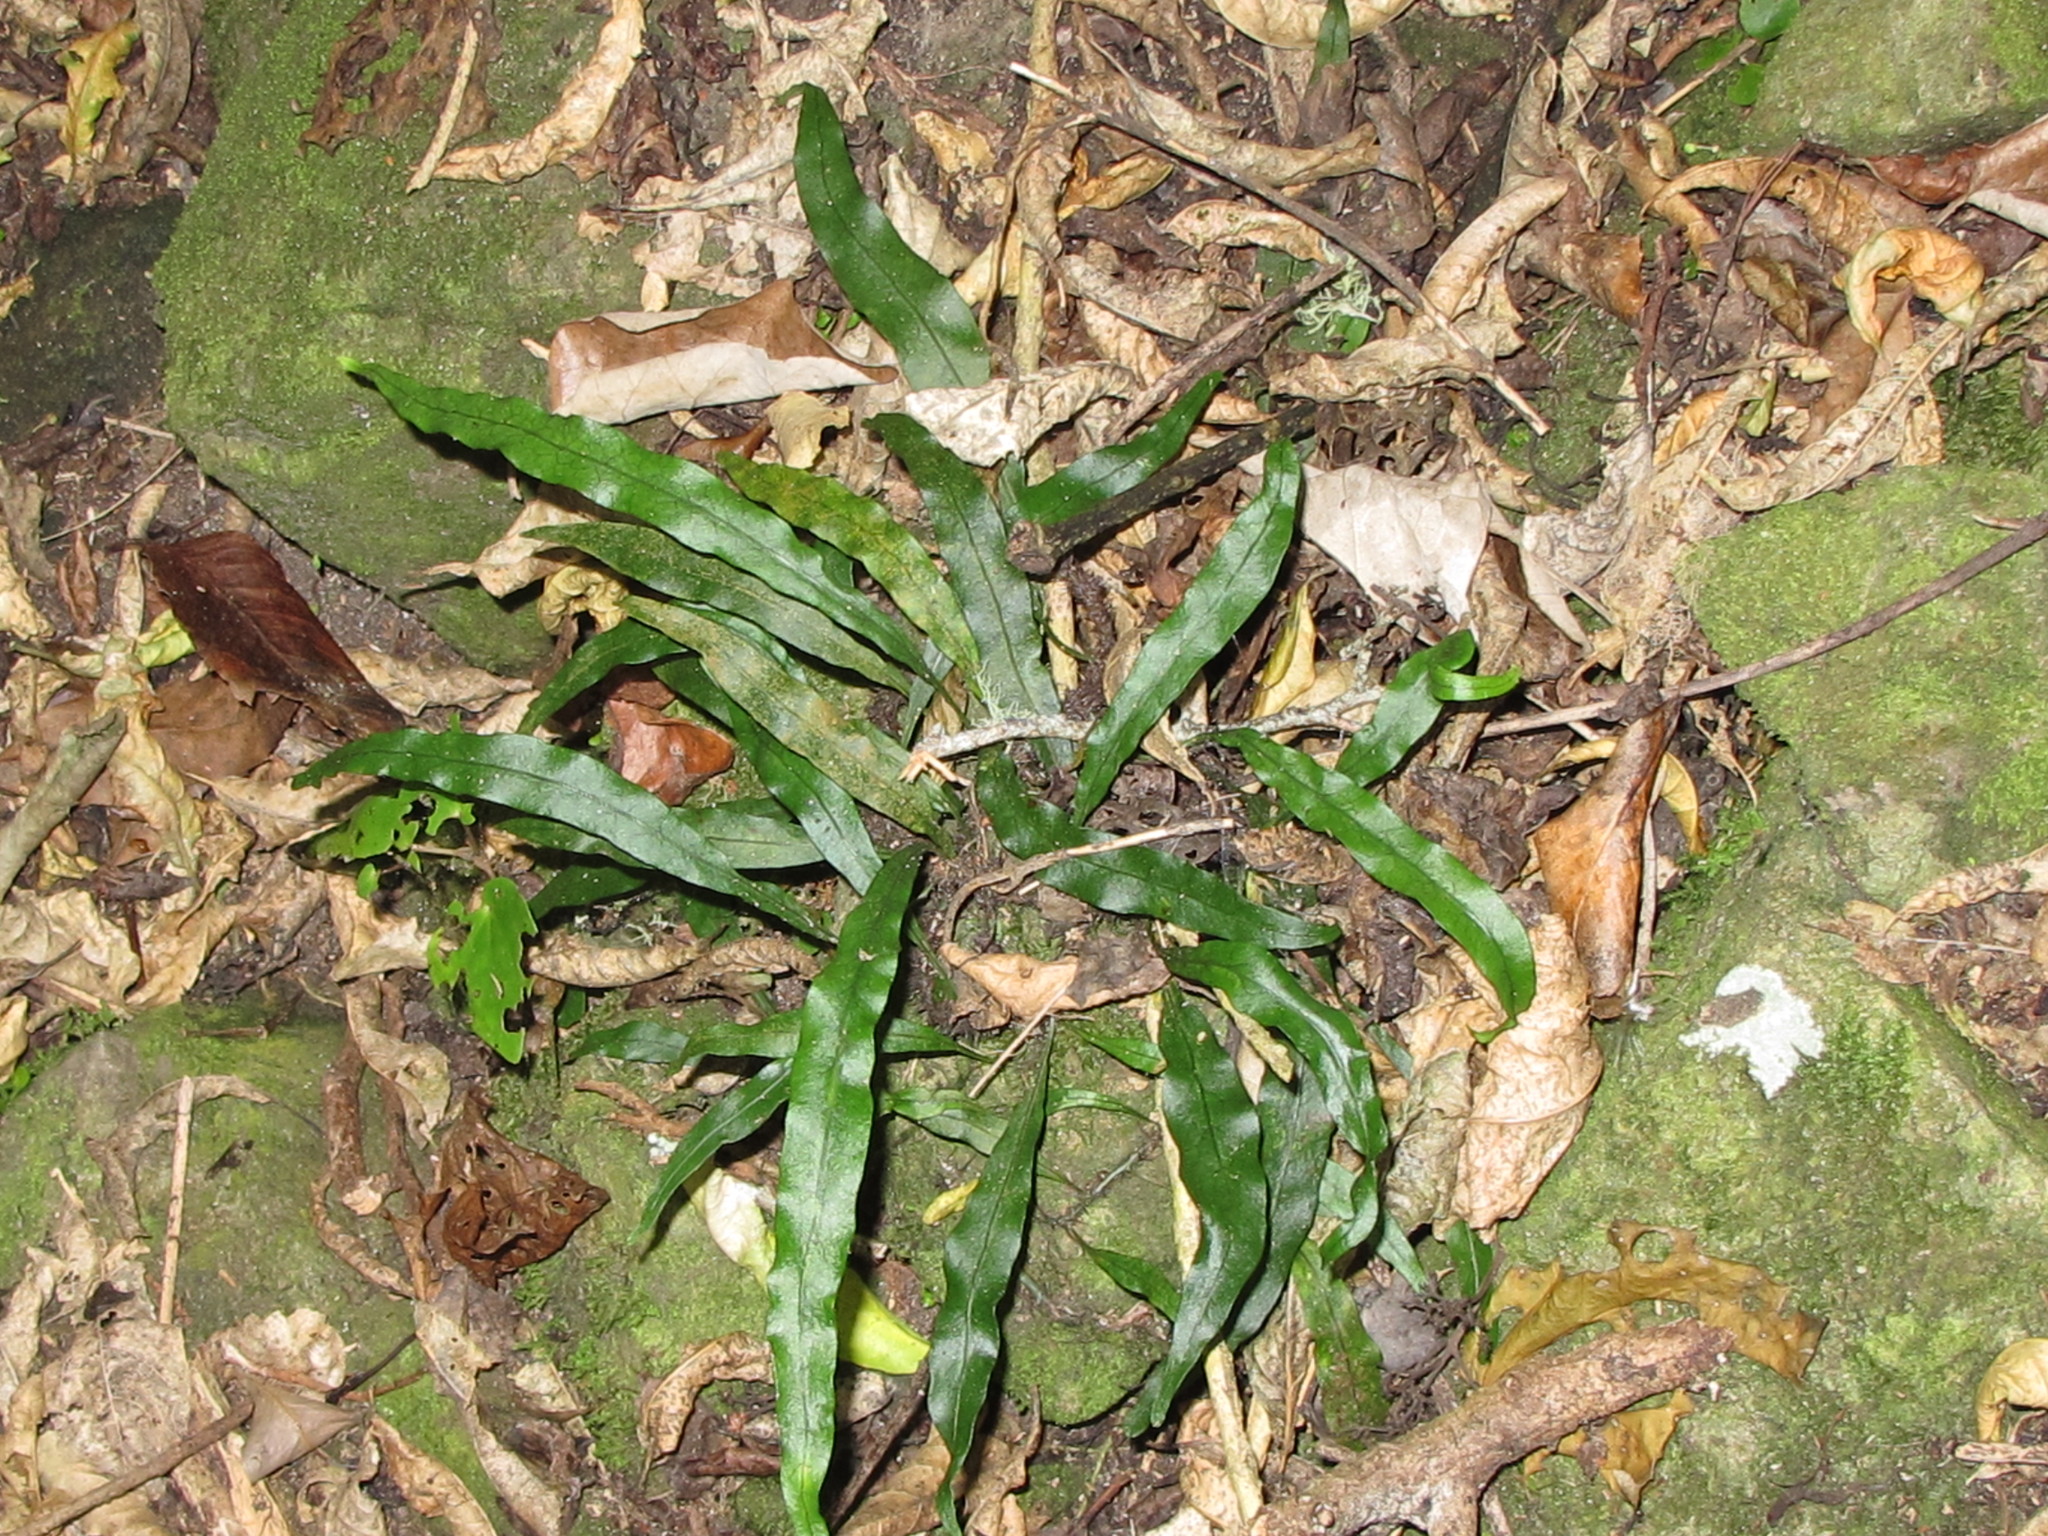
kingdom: Plantae
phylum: Tracheophyta
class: Polypodiopsida
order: Polypodiales
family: Polypodiaceae
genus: Lecanopteris
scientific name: Lecanopteris scandens
